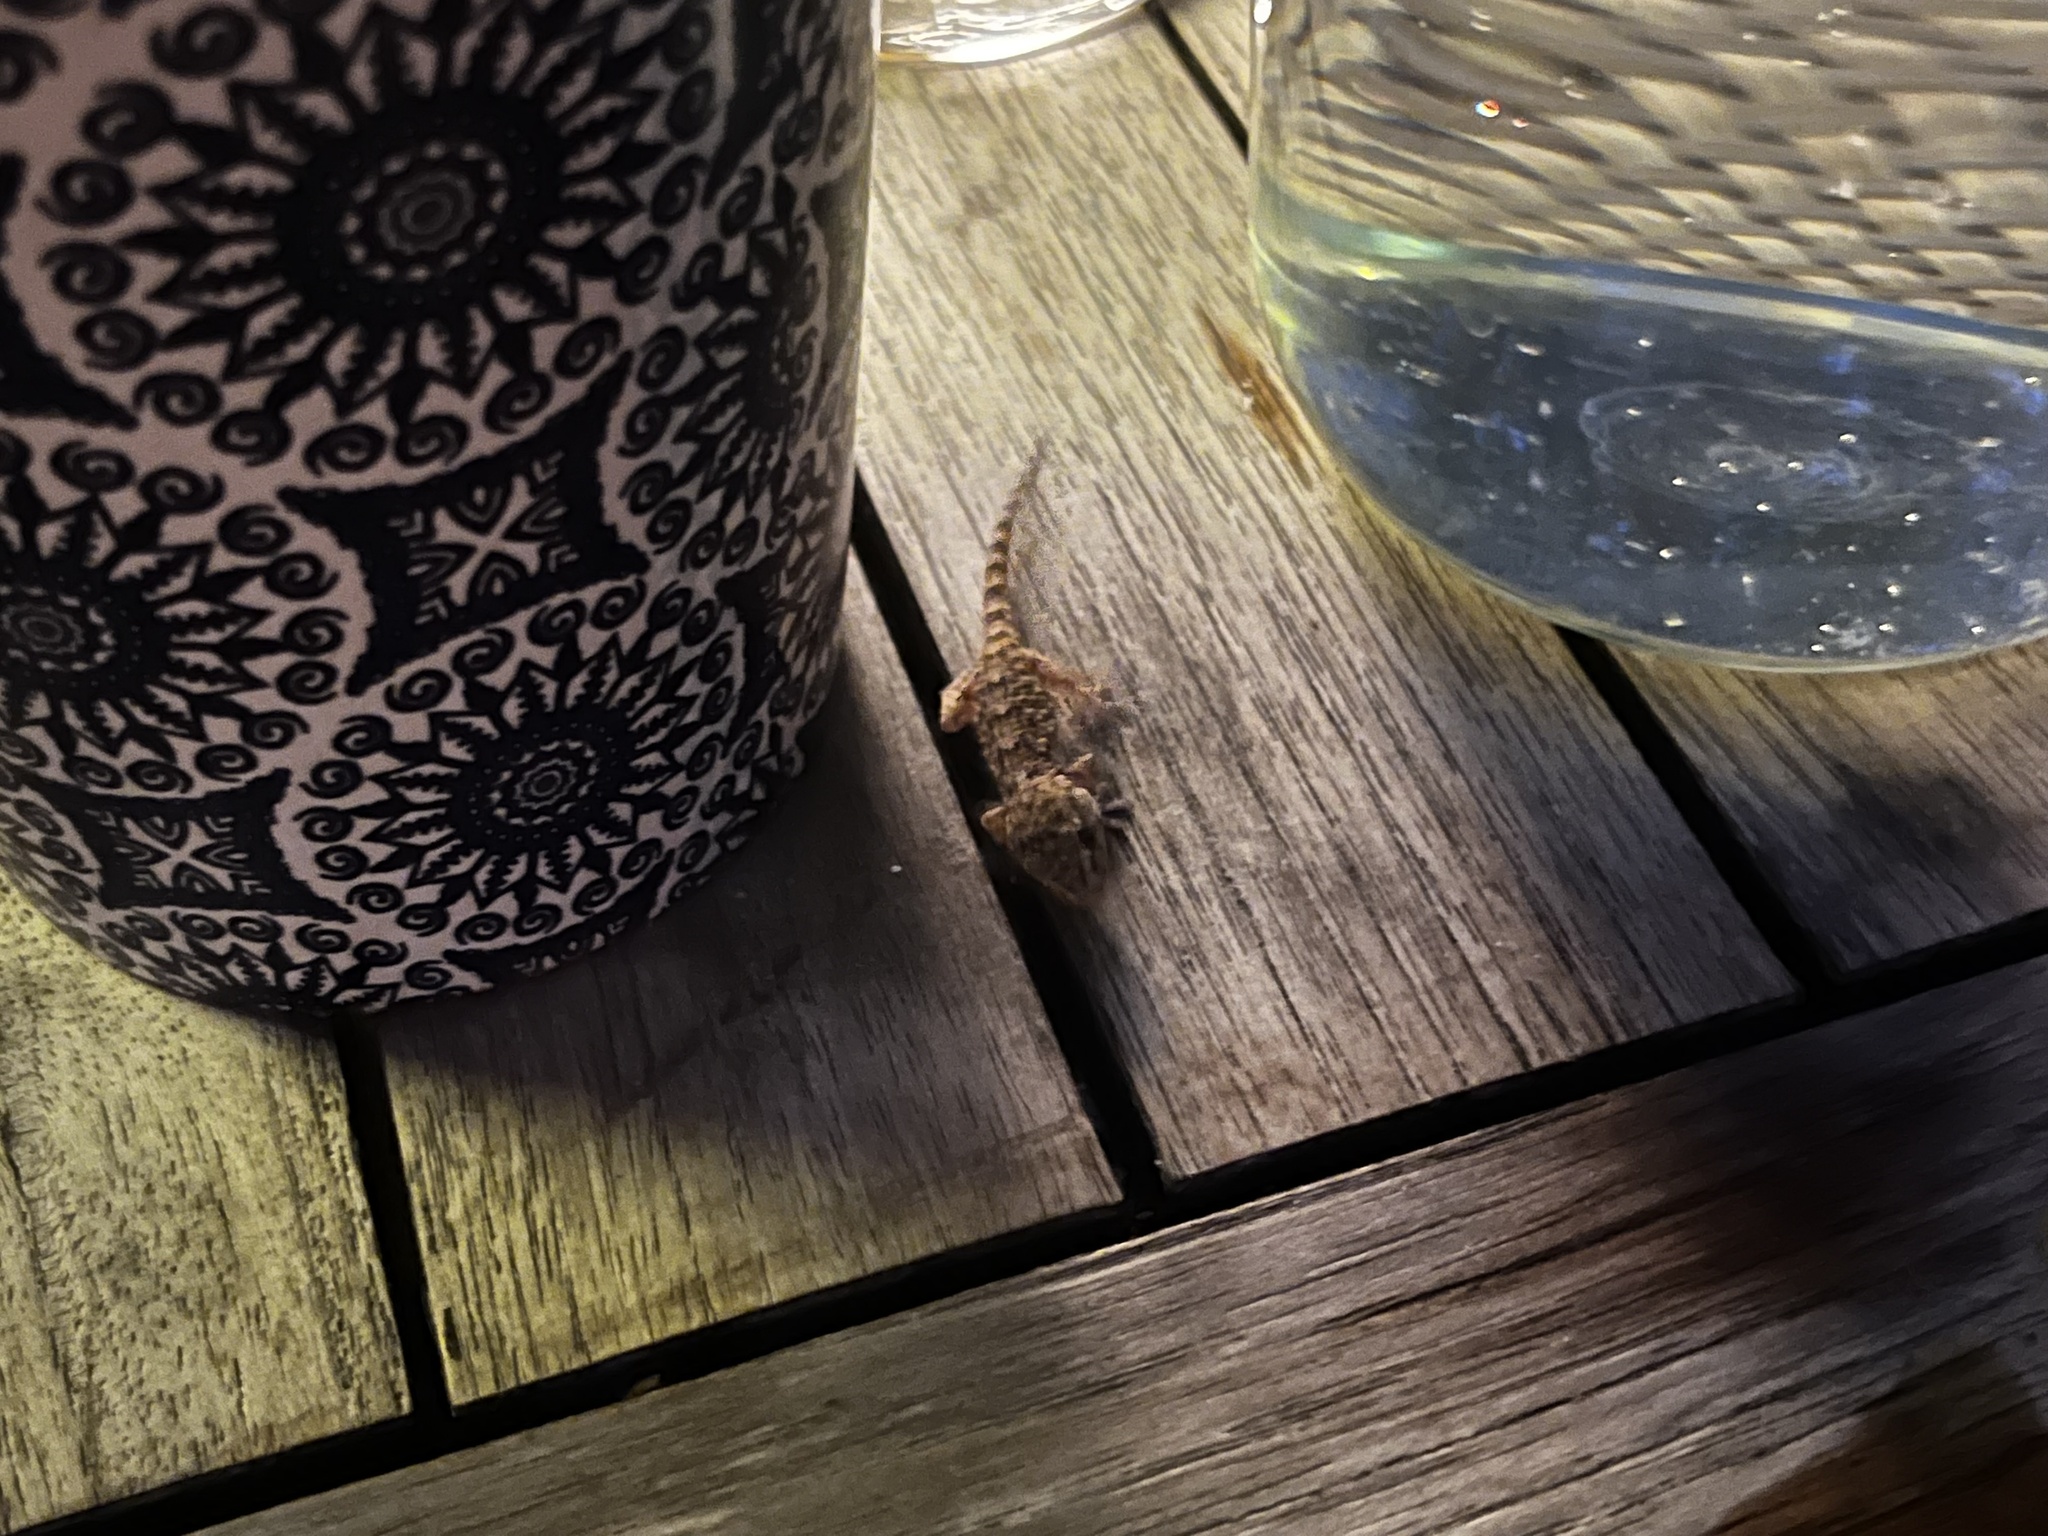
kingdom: Animalia
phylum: Chordata
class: Squamata
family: Phyllodactylidae
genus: Tarentola
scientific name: Tarentola mauritanica
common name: Moorish gecko
